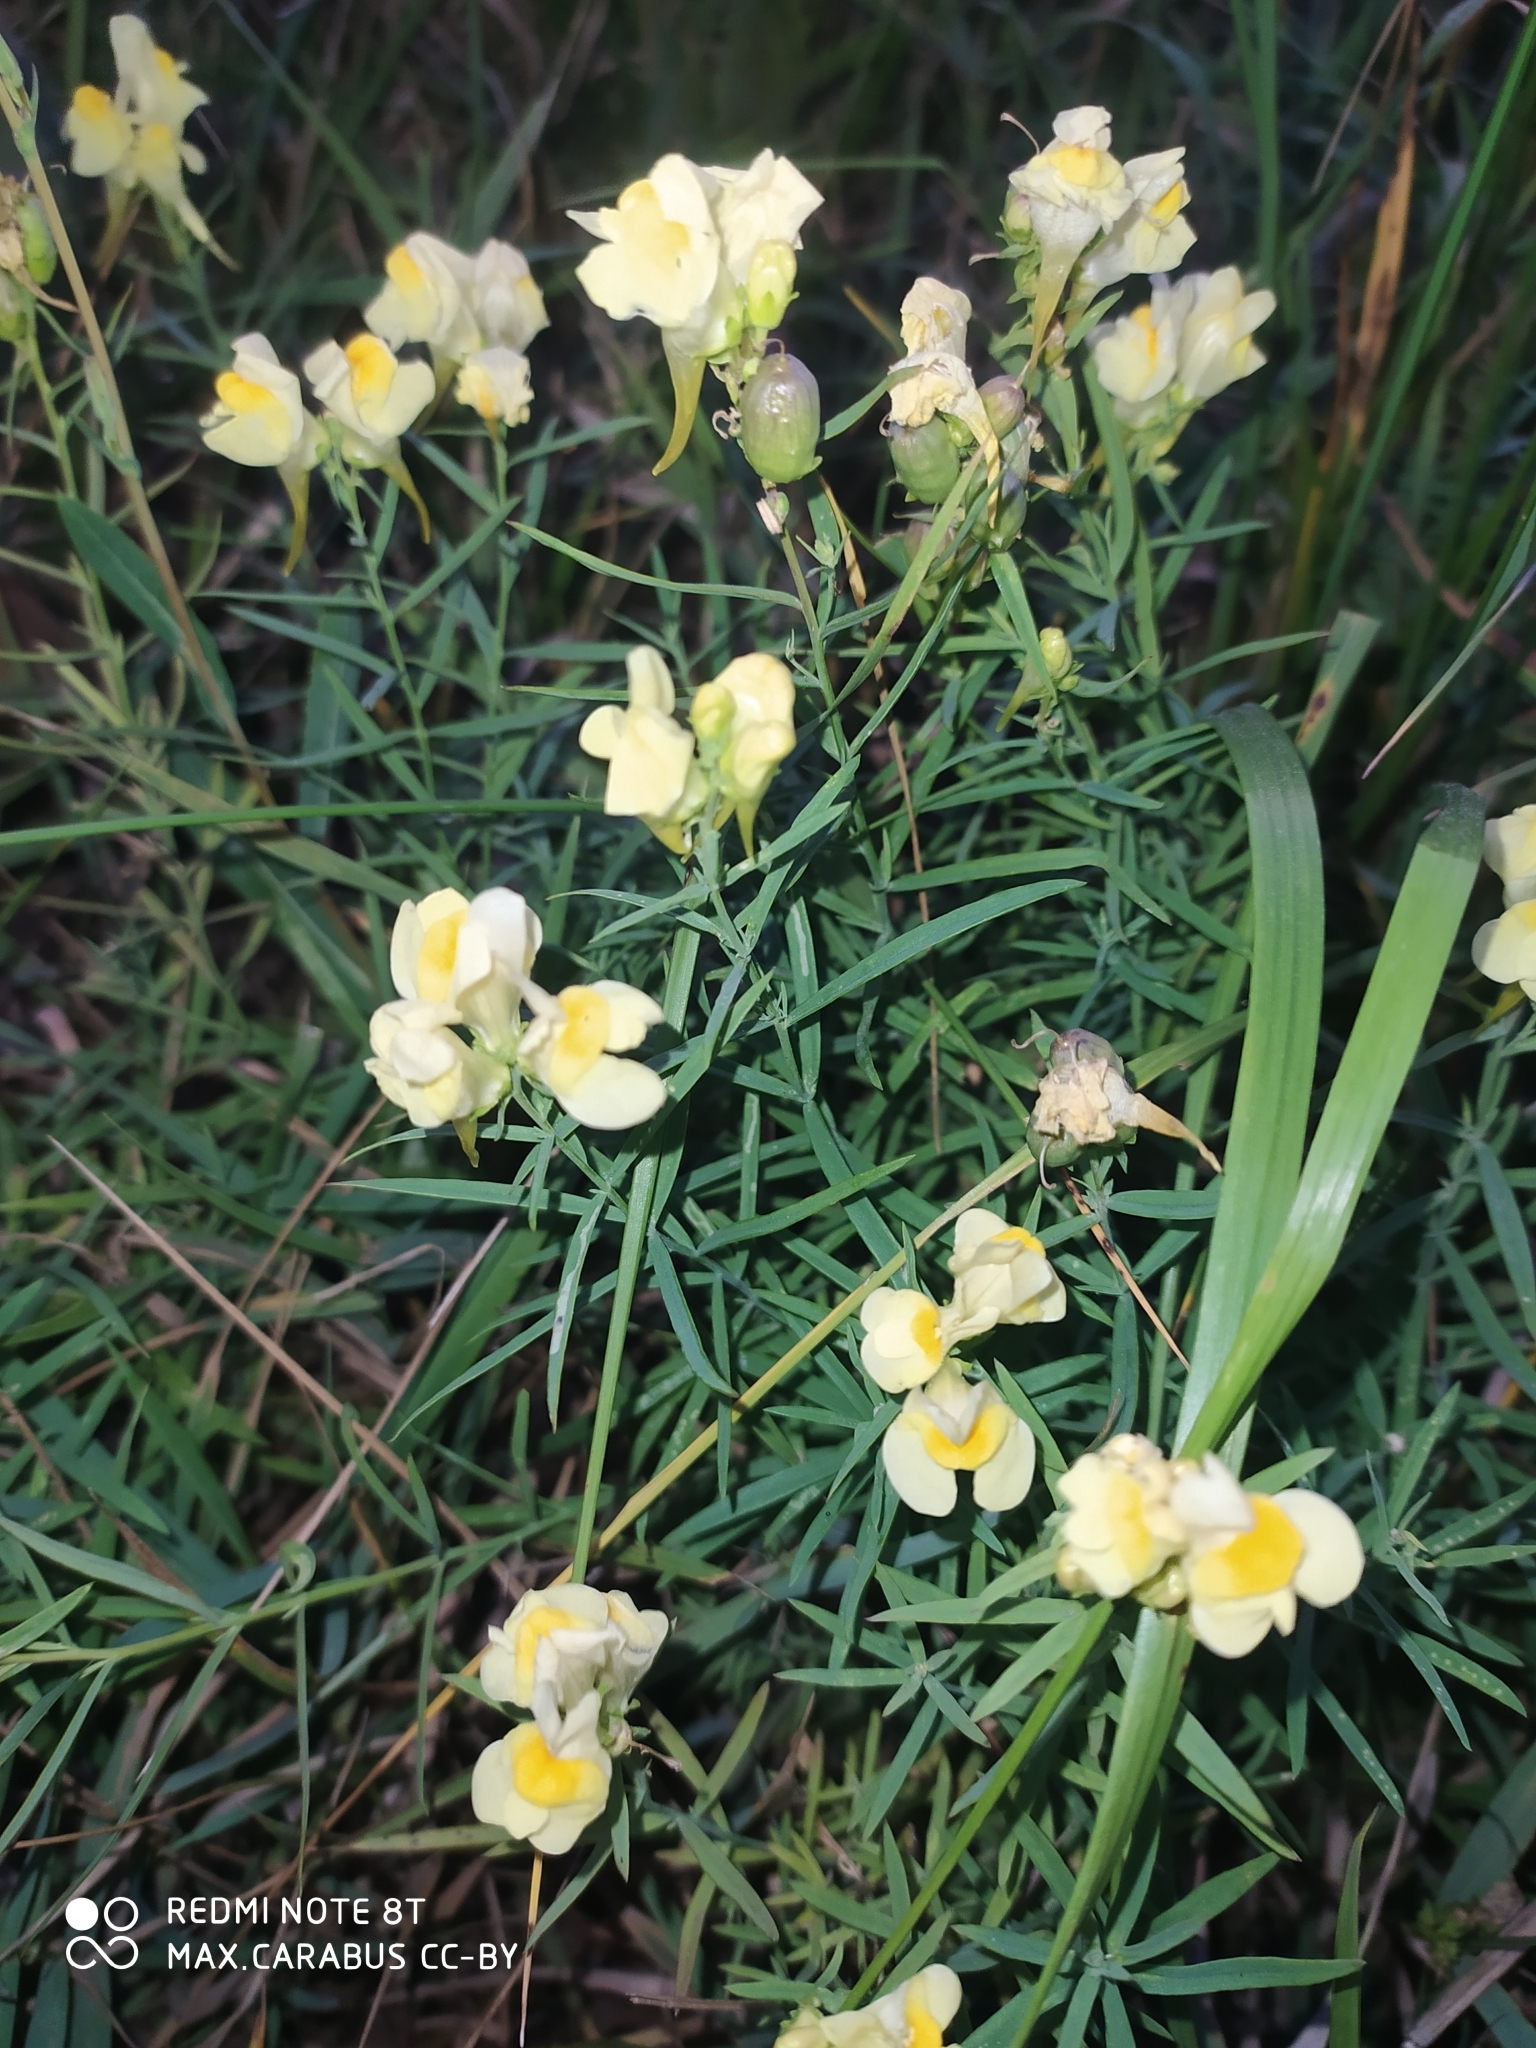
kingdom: Plantae
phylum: Tracheophyta
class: Magnoliopsida
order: Lamiales
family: Plantaginaceae
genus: Linaria
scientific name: Linaria vulgaris
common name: Butter and eggs
